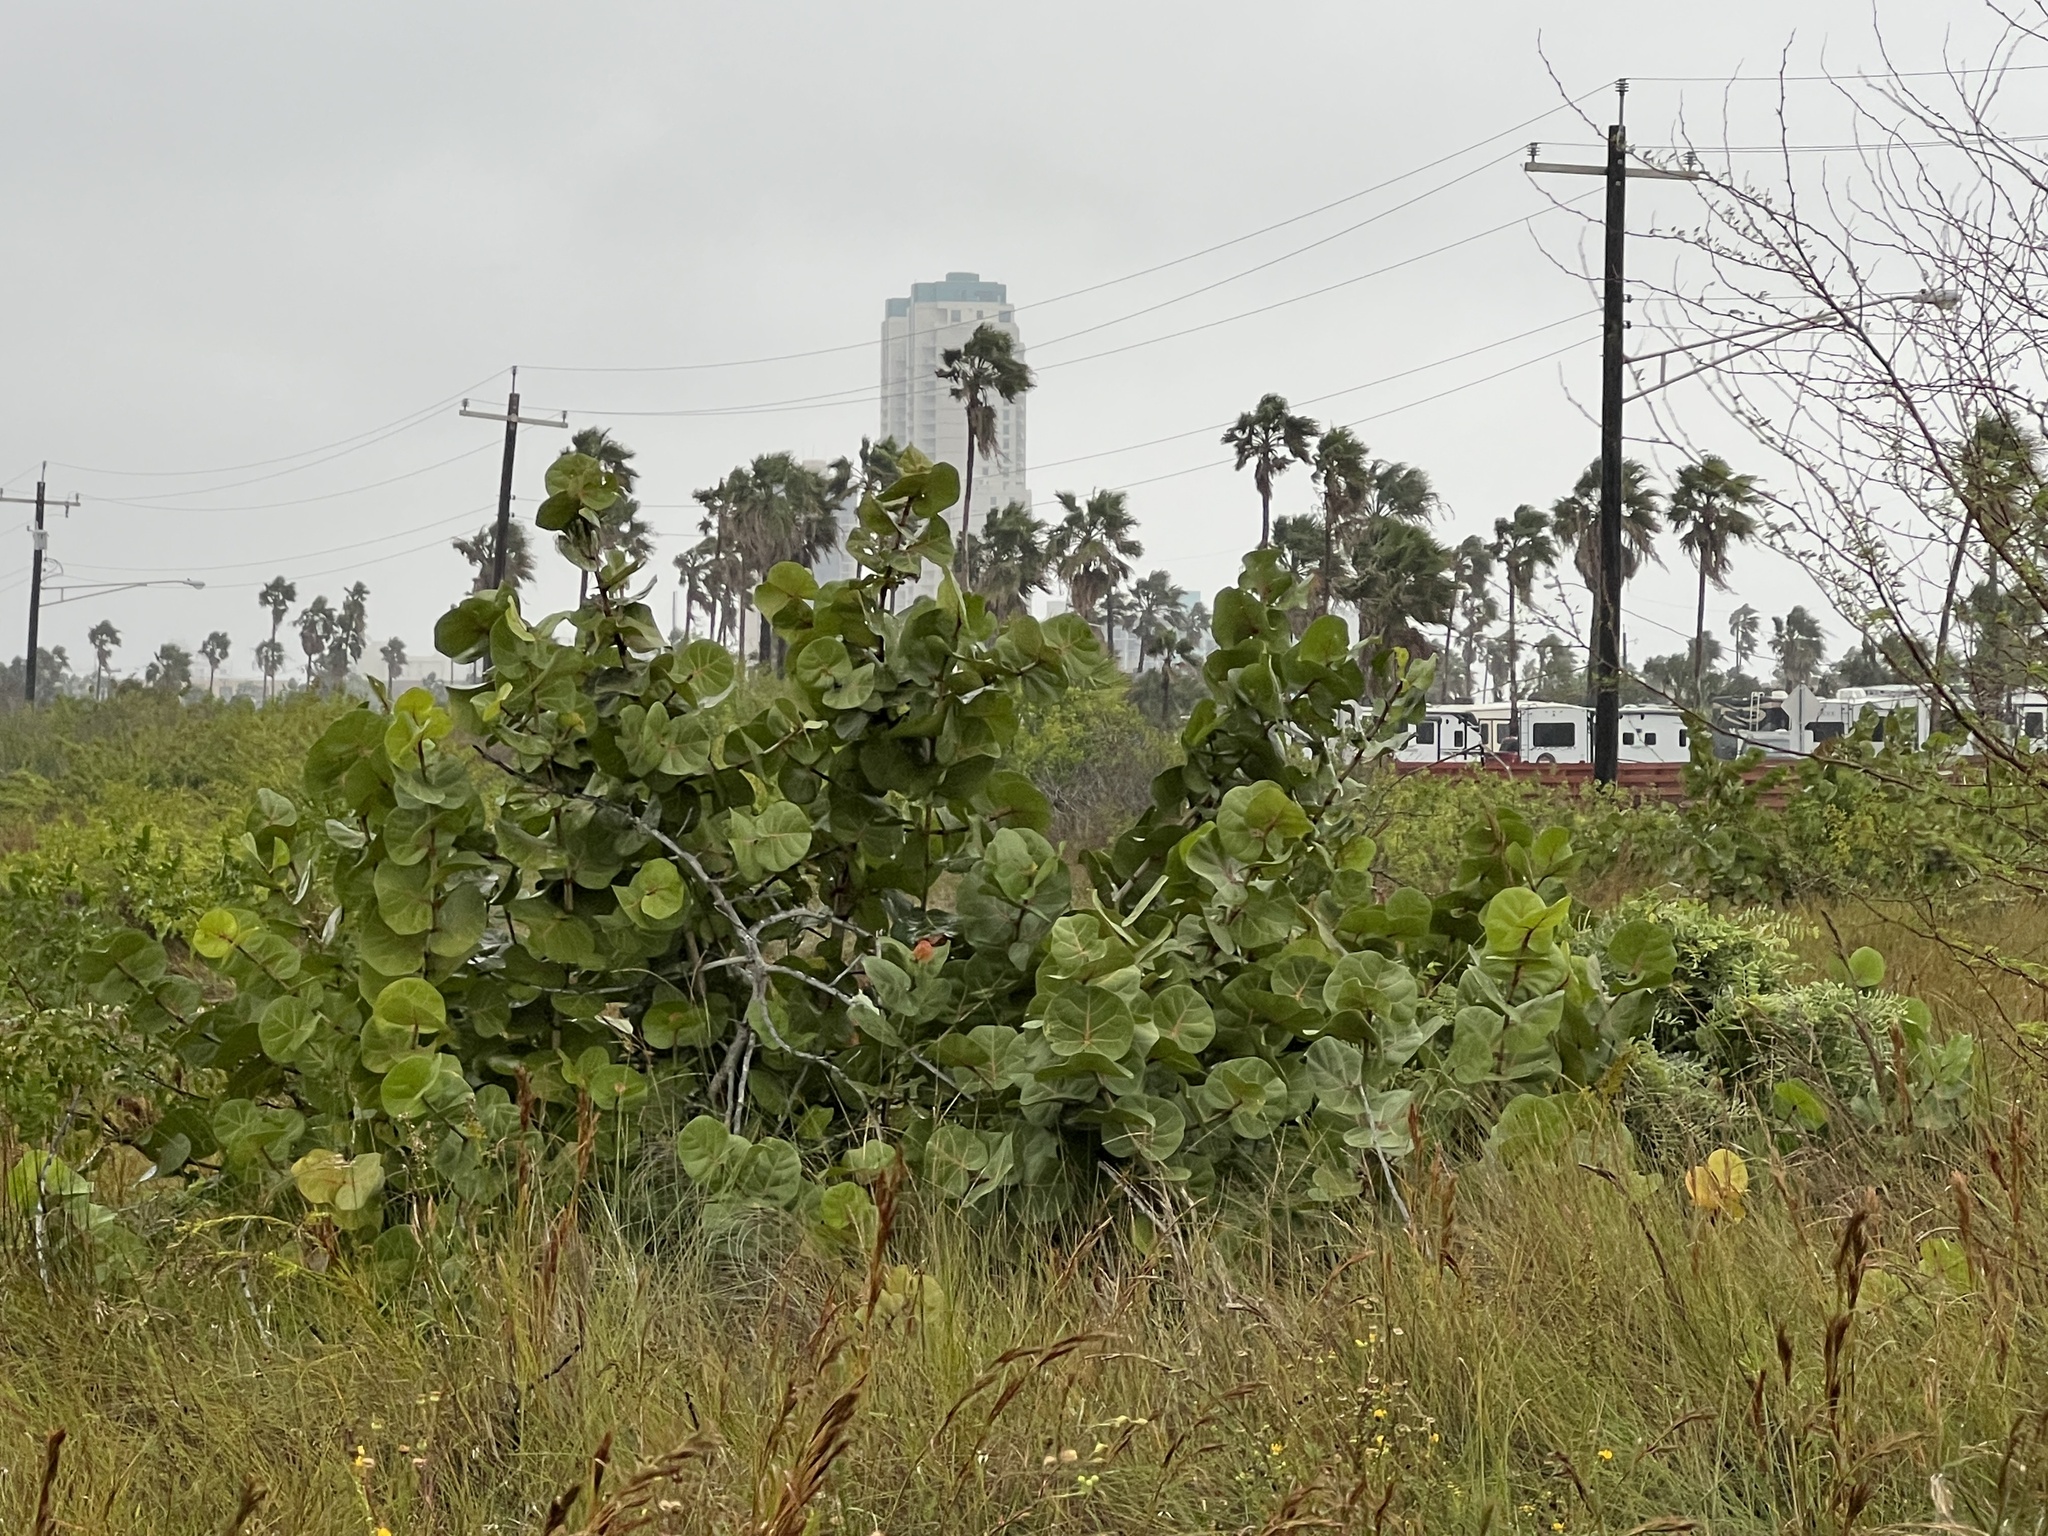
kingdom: Plantae
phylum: Tracheophyta
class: Magnoliopsida
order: Caryophyllales
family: Polygonaceae
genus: Coccoloba
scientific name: Coccoloba uvifera
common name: Seagrape
